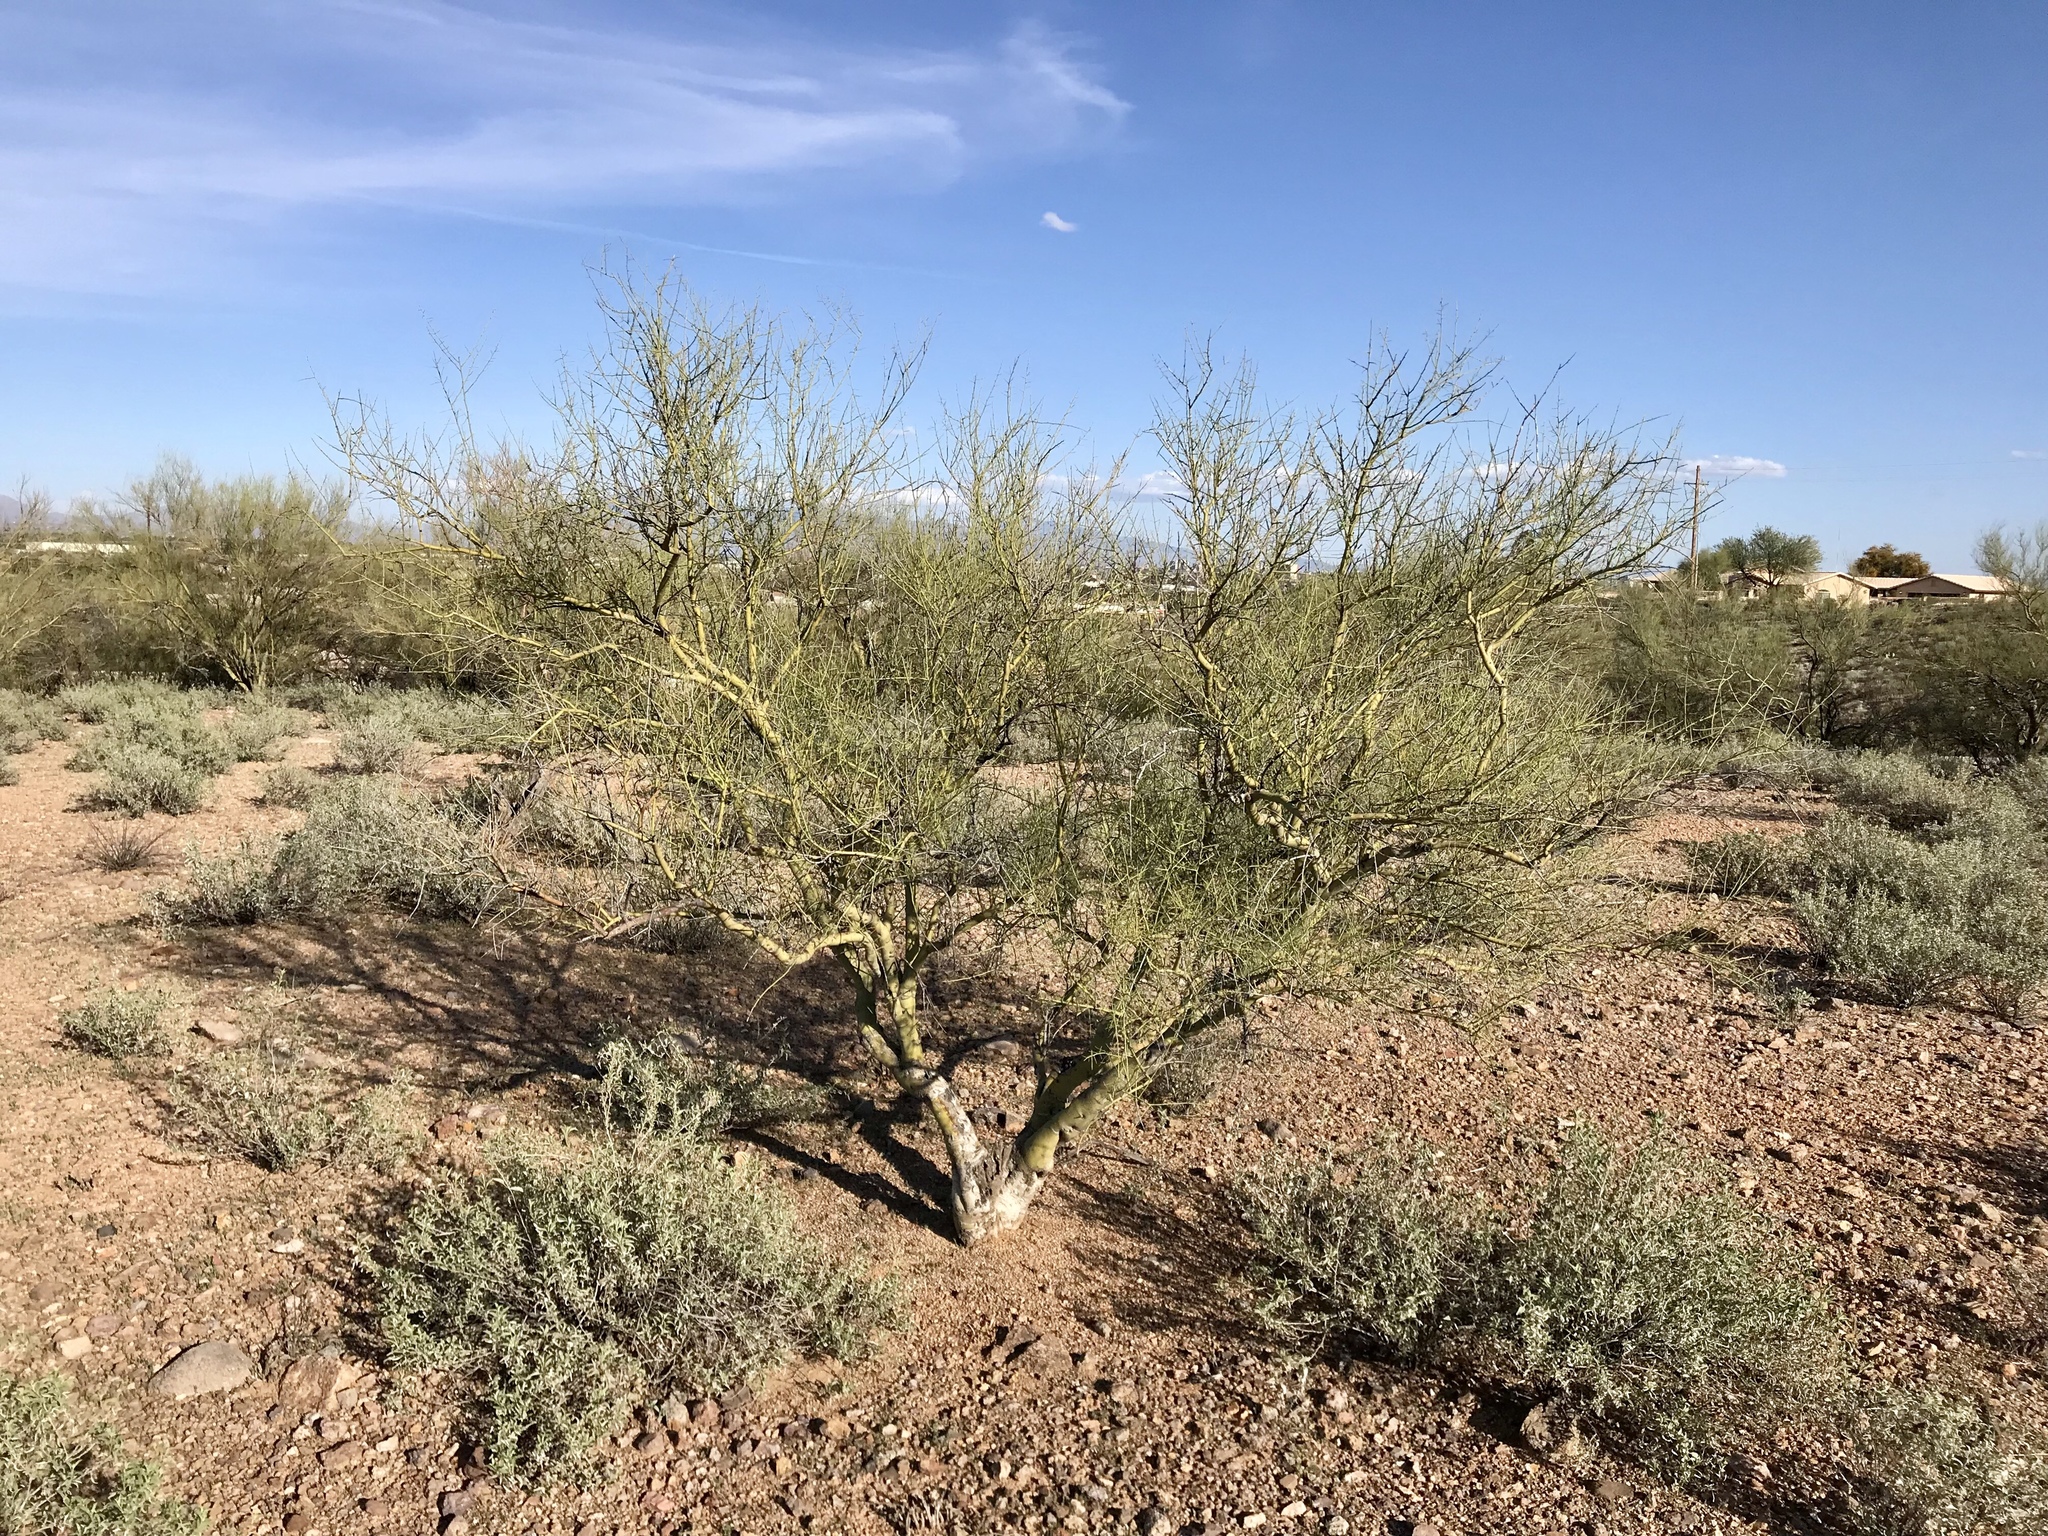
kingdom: Plantae
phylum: Tracheophyta
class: Magnoliopsida
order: Fabales
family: Fabaceae
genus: Parkinsonia
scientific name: Parkinsonia microphylla
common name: Yellow paloverde
